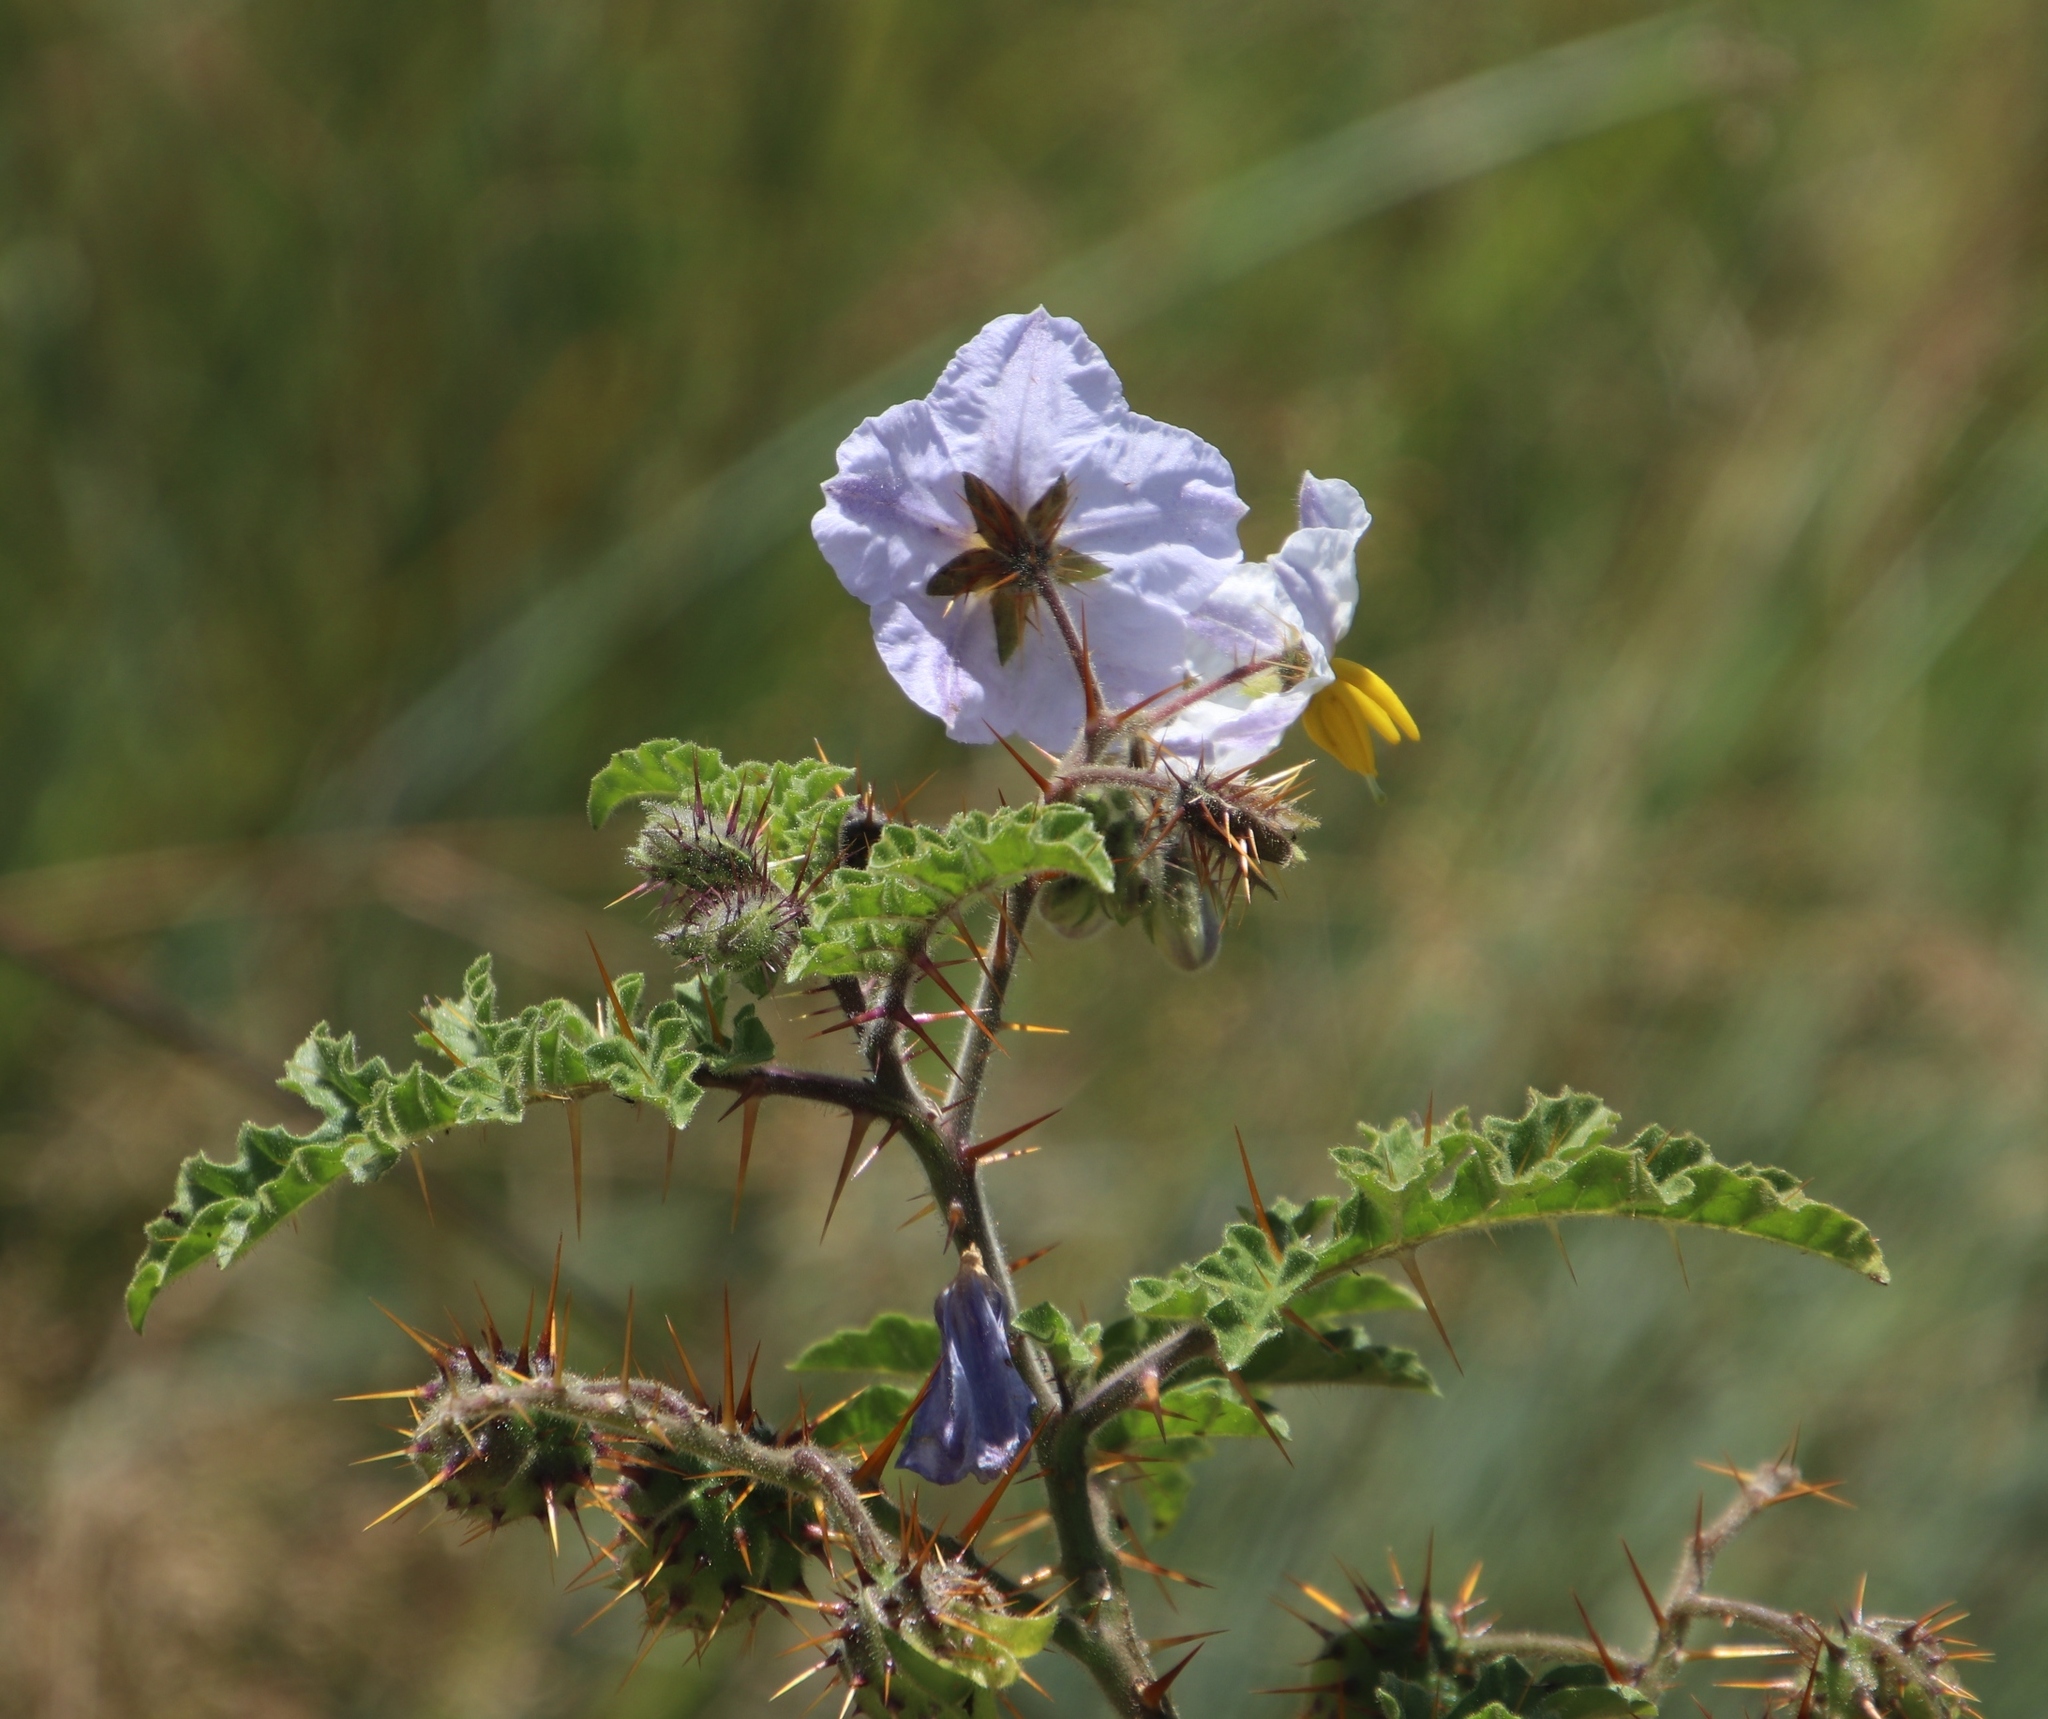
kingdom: Plantae
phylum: Tracheophyta
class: Magnoliopsida
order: Solanales
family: Solanaceae
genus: Solanum
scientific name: Solanum sisymbriifolium
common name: Red buffalo-bur
